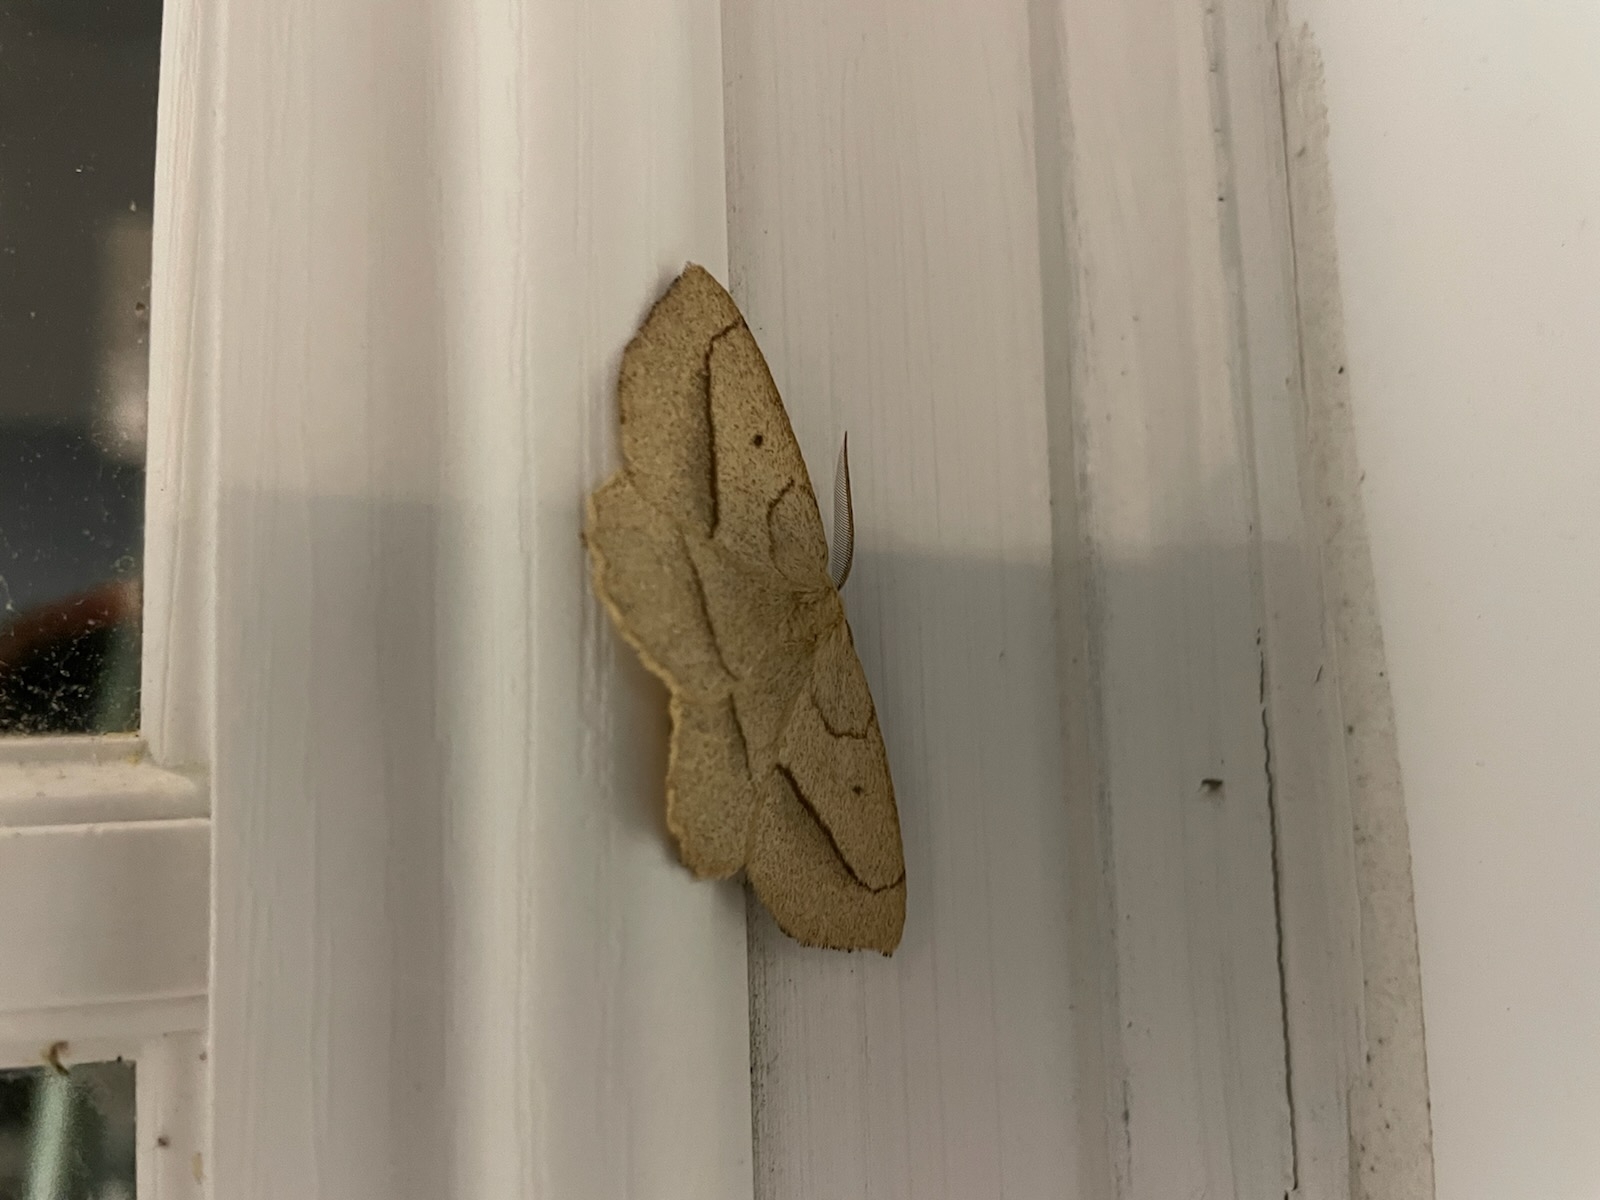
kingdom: Animalia
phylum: Arthropoda
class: Insecta
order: Lepidoptera
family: Geometridae
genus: Euchlaena
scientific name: Euchlaena irraria
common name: Least-marked euchlaena
